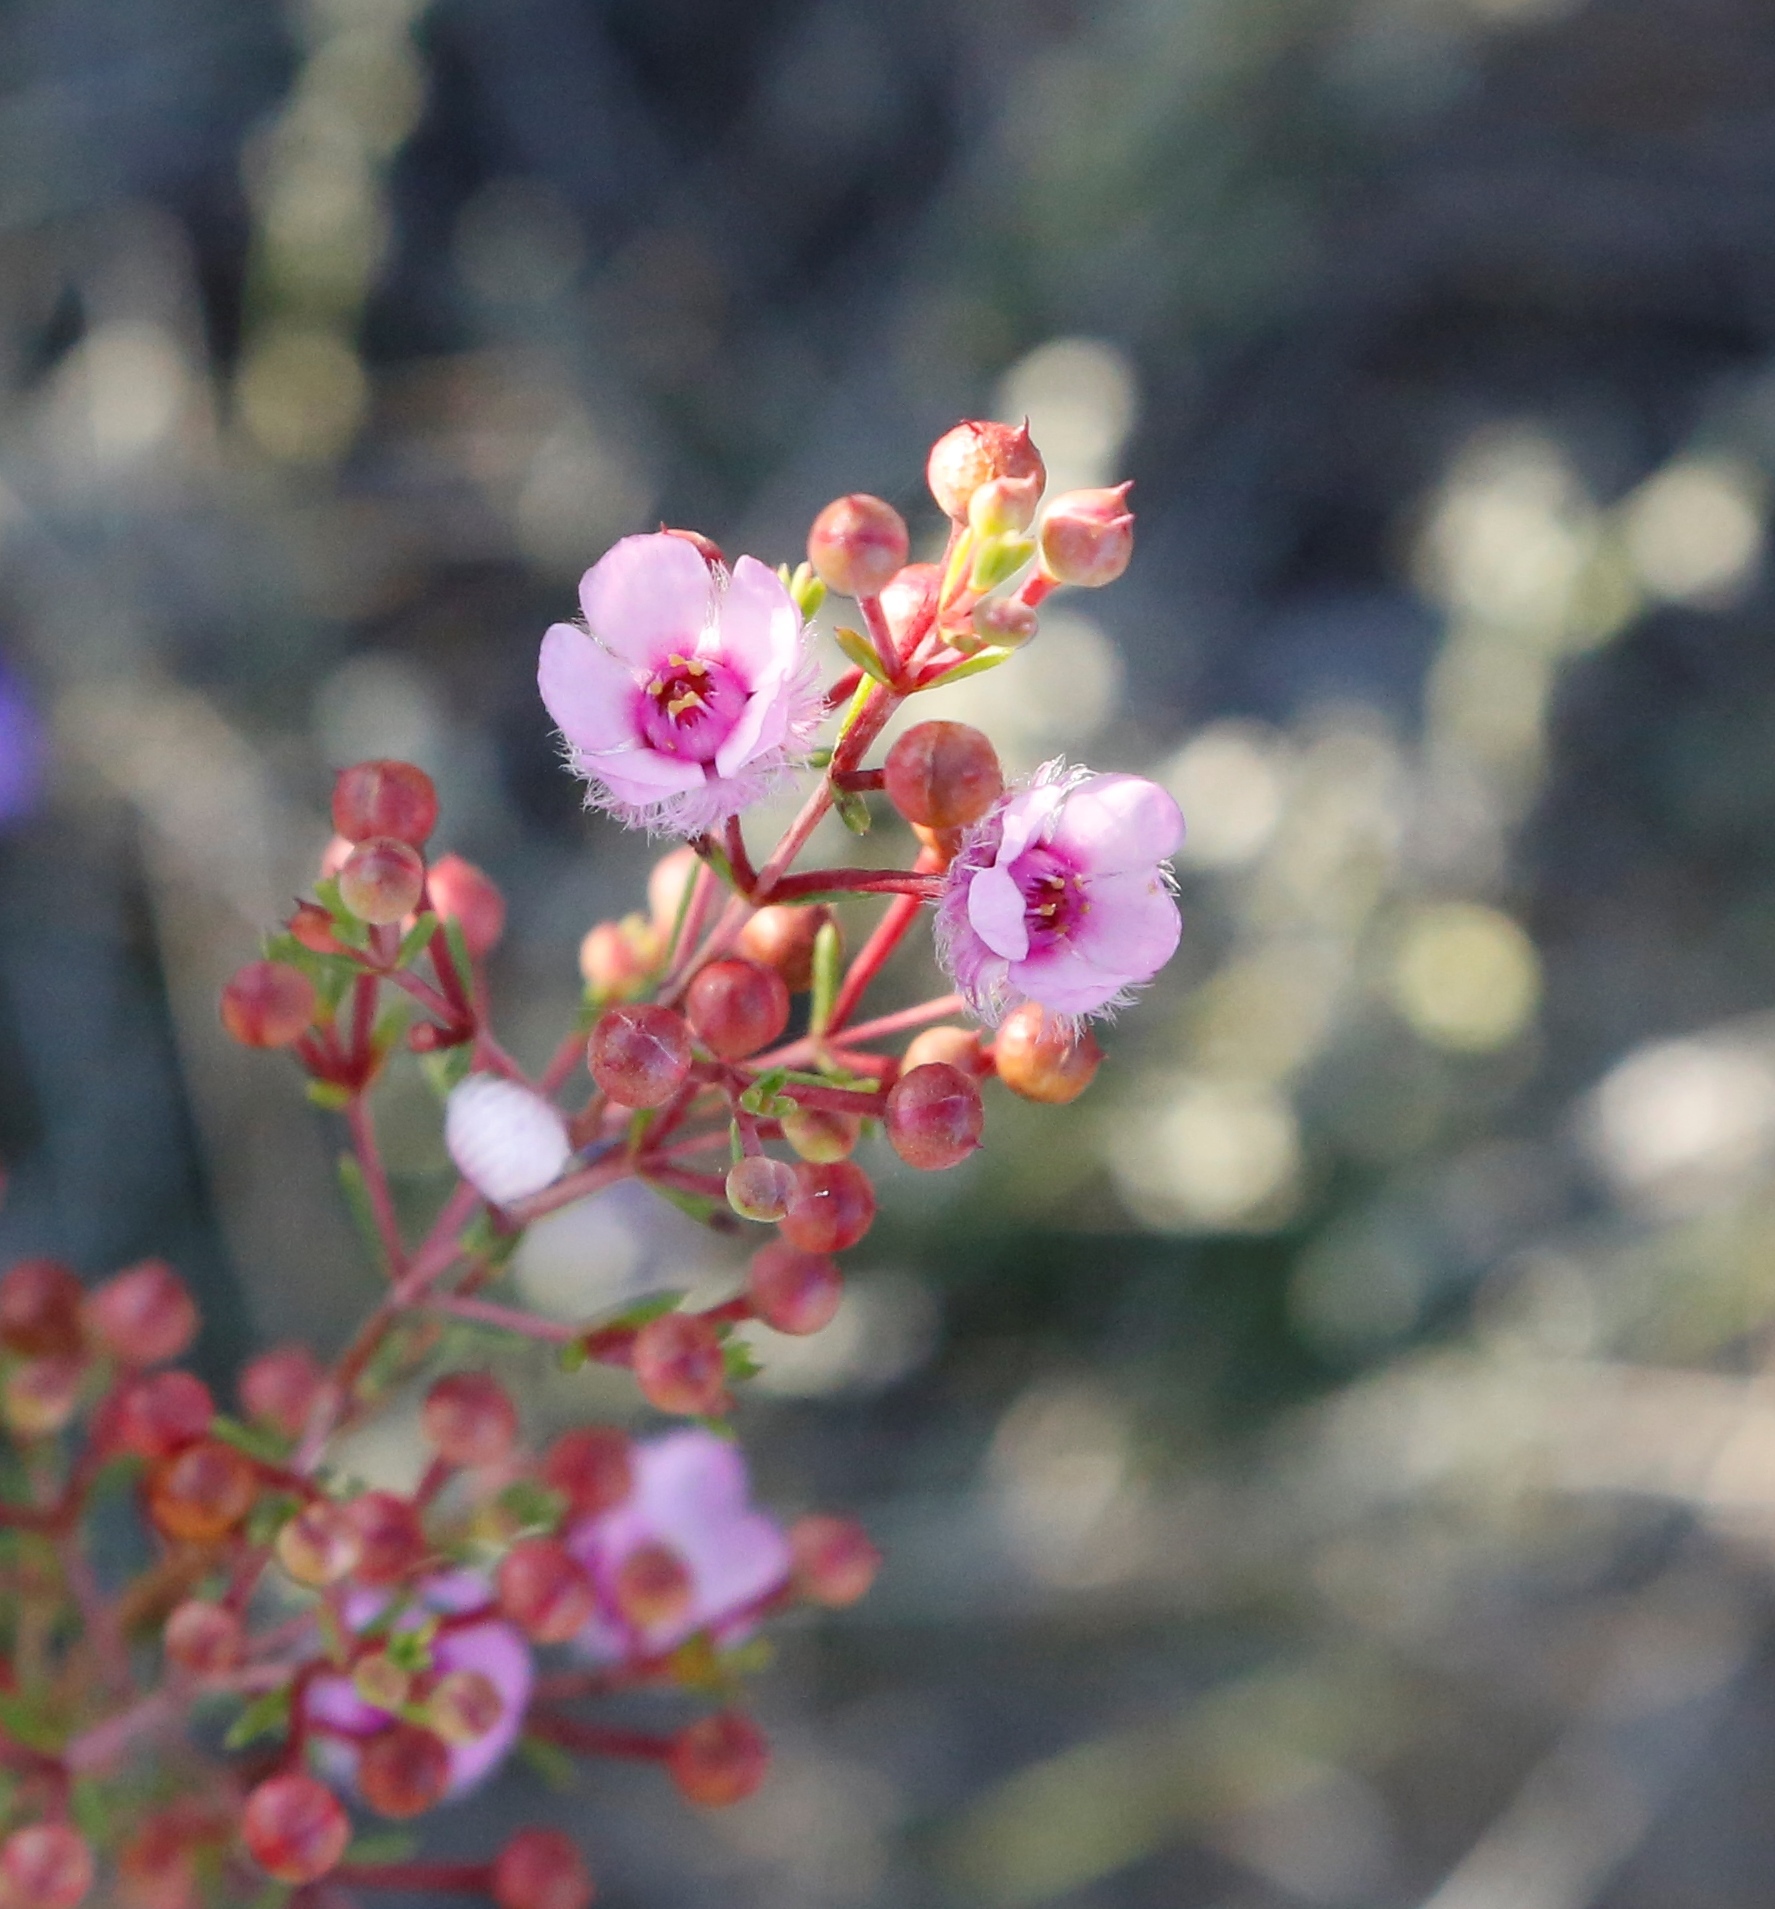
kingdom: Plantae
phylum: Tracheophyta
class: Magnoliopsida
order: Myrtales
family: Myrtaceae
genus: Verticordia
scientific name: Verticordia picta
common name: Painted feather-flower
